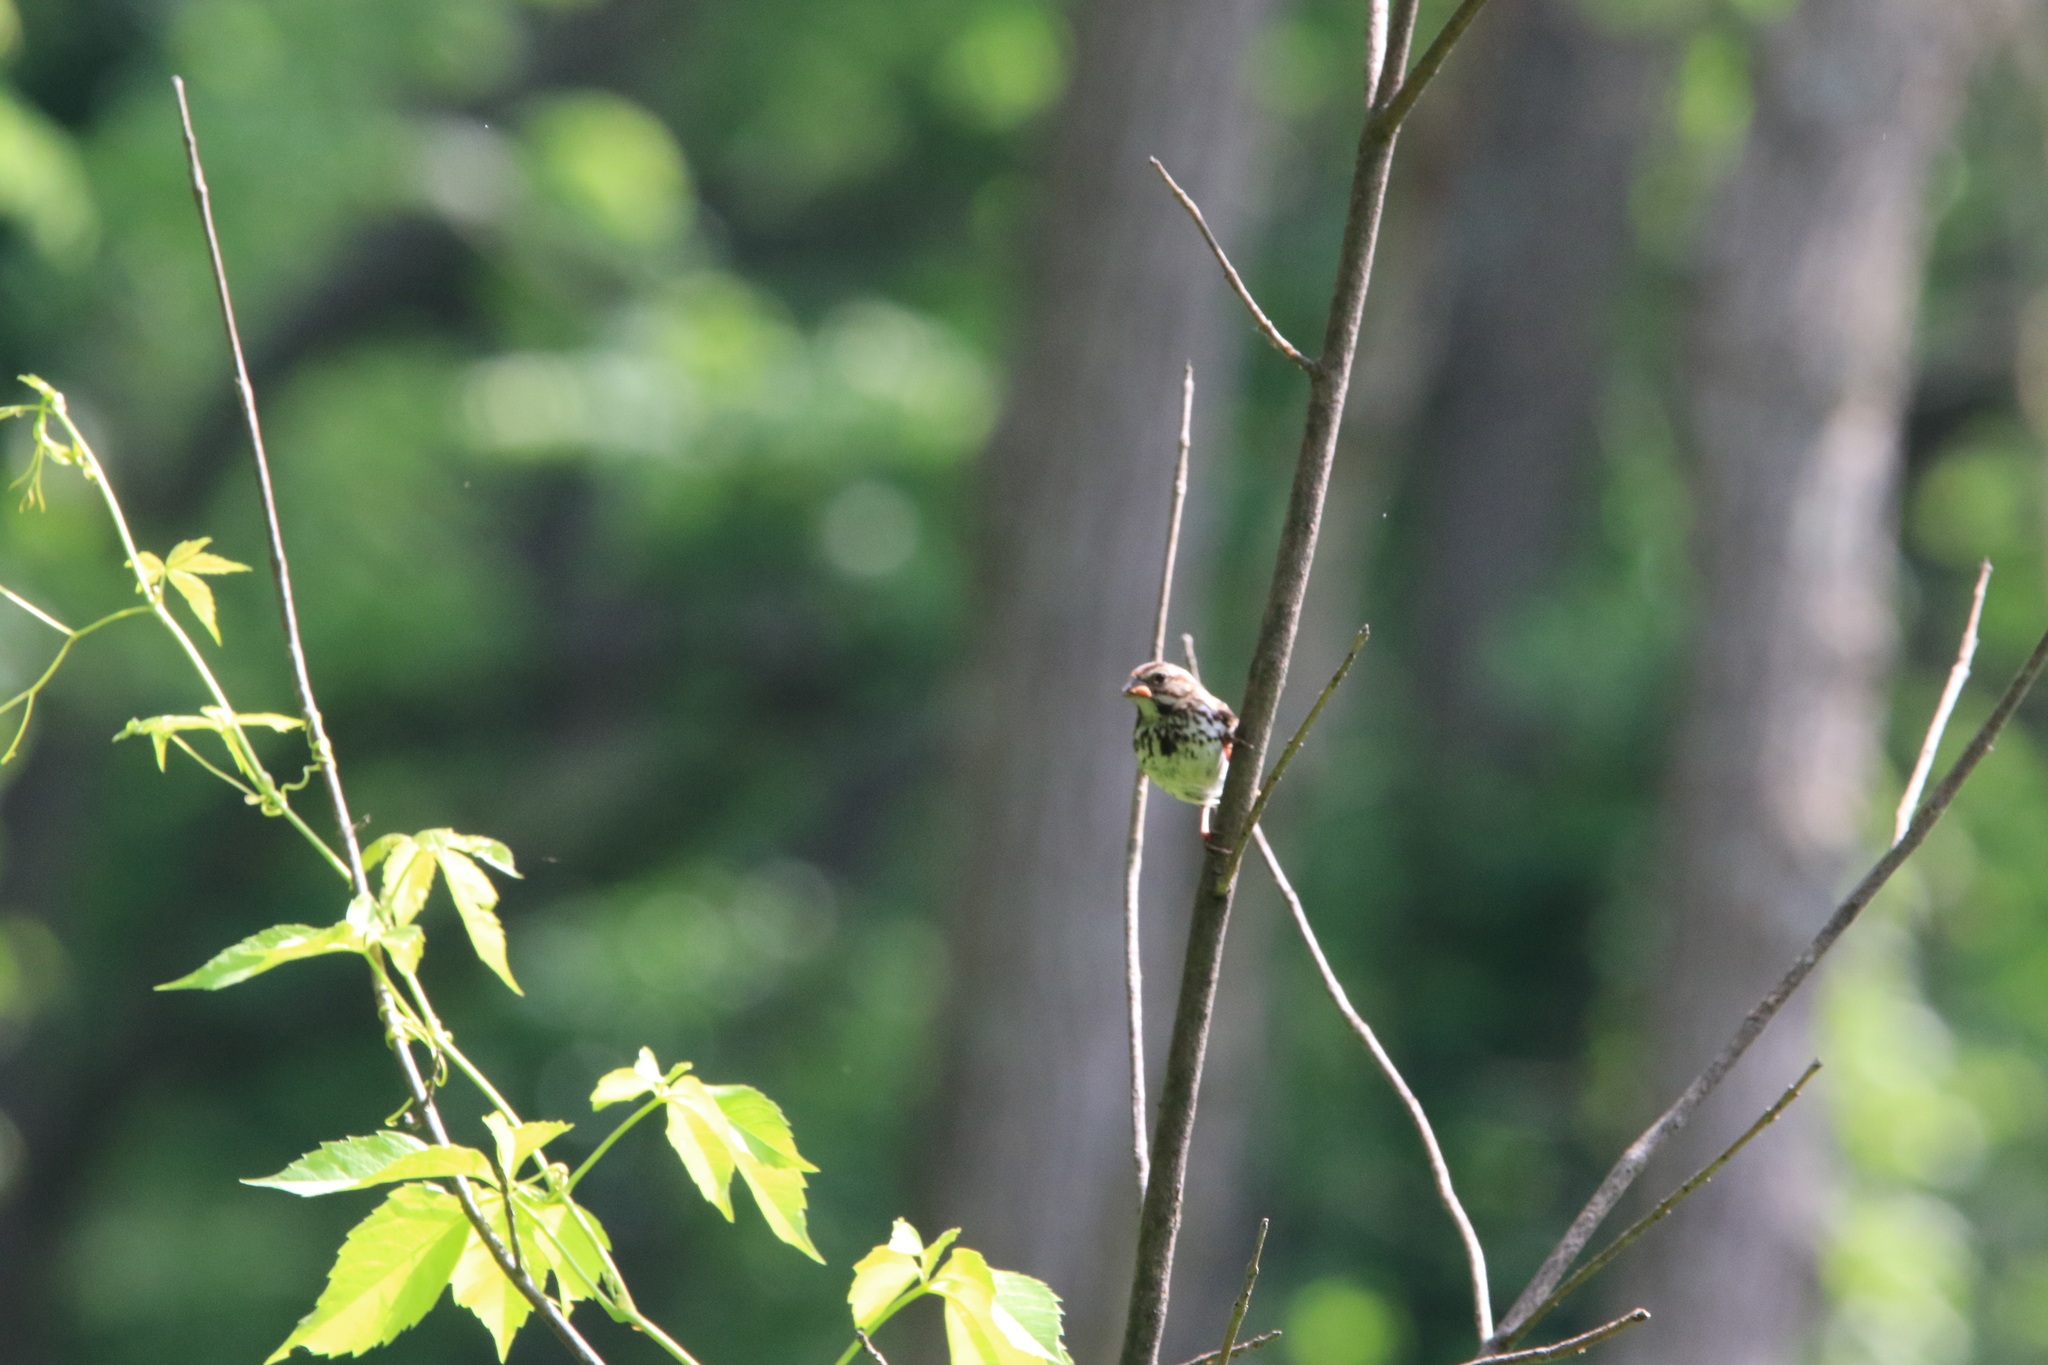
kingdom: Animalia
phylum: Chordata
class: Aves
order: Passeriformes
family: Passerellidae
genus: Melospiza
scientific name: Melospiza melodia
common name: Song sparrow
